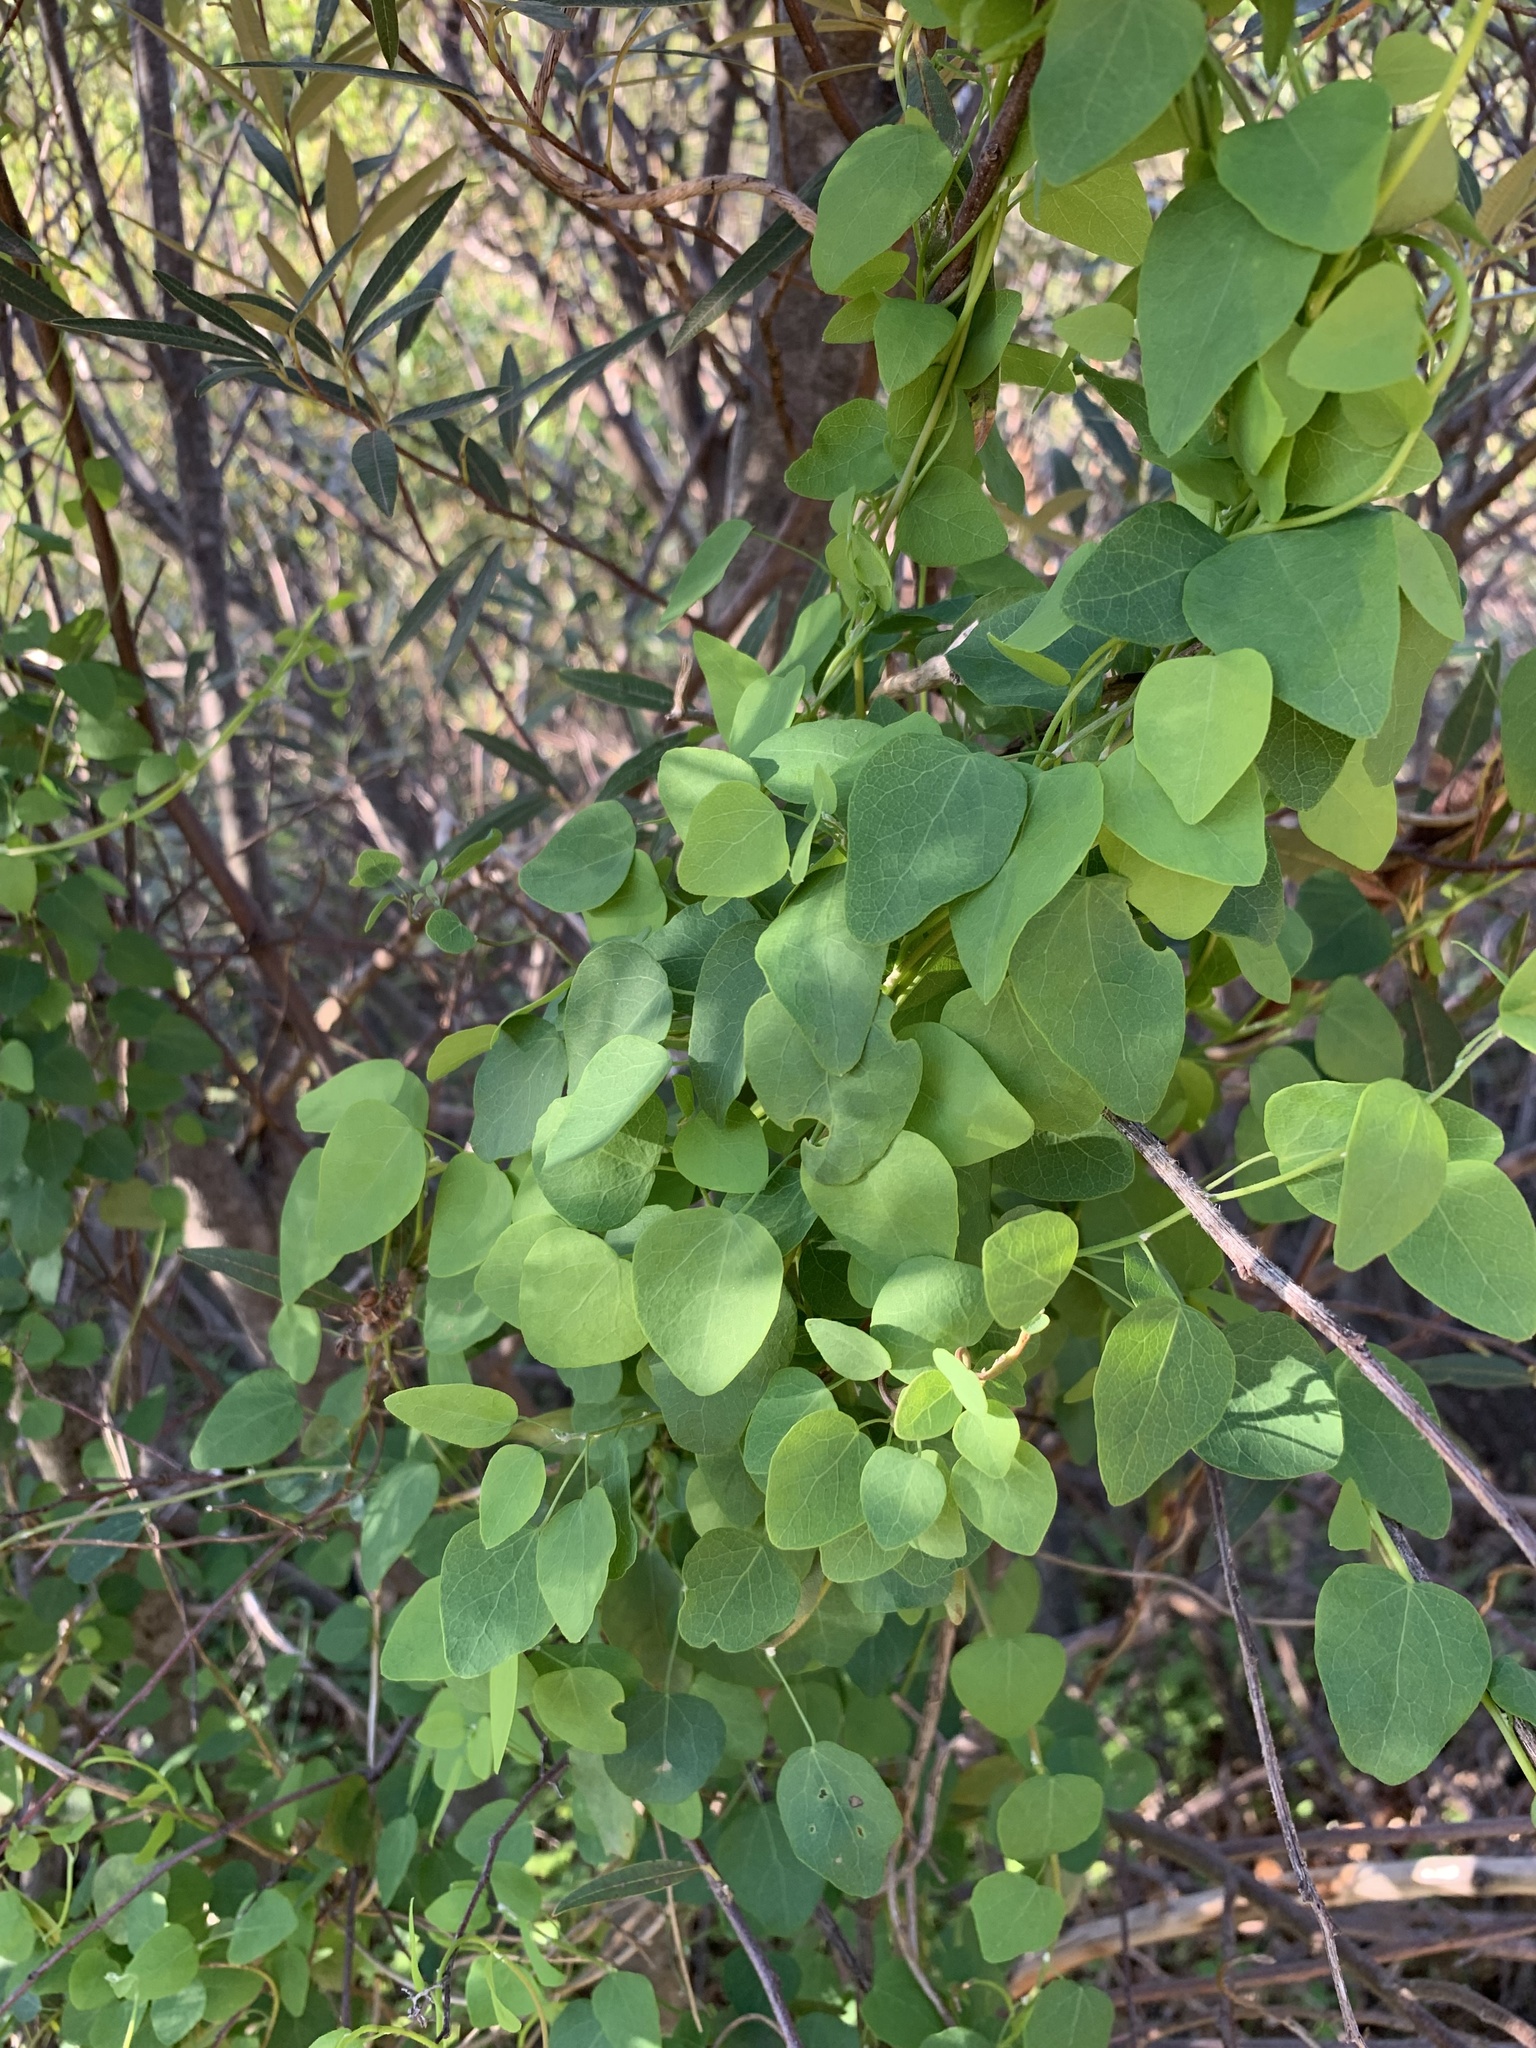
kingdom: Plantae
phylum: Tracheophyta
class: Magnoliopsida
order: Ranunculales
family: Menispermaceae
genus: Cissampelos
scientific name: Cissampelos capensis
